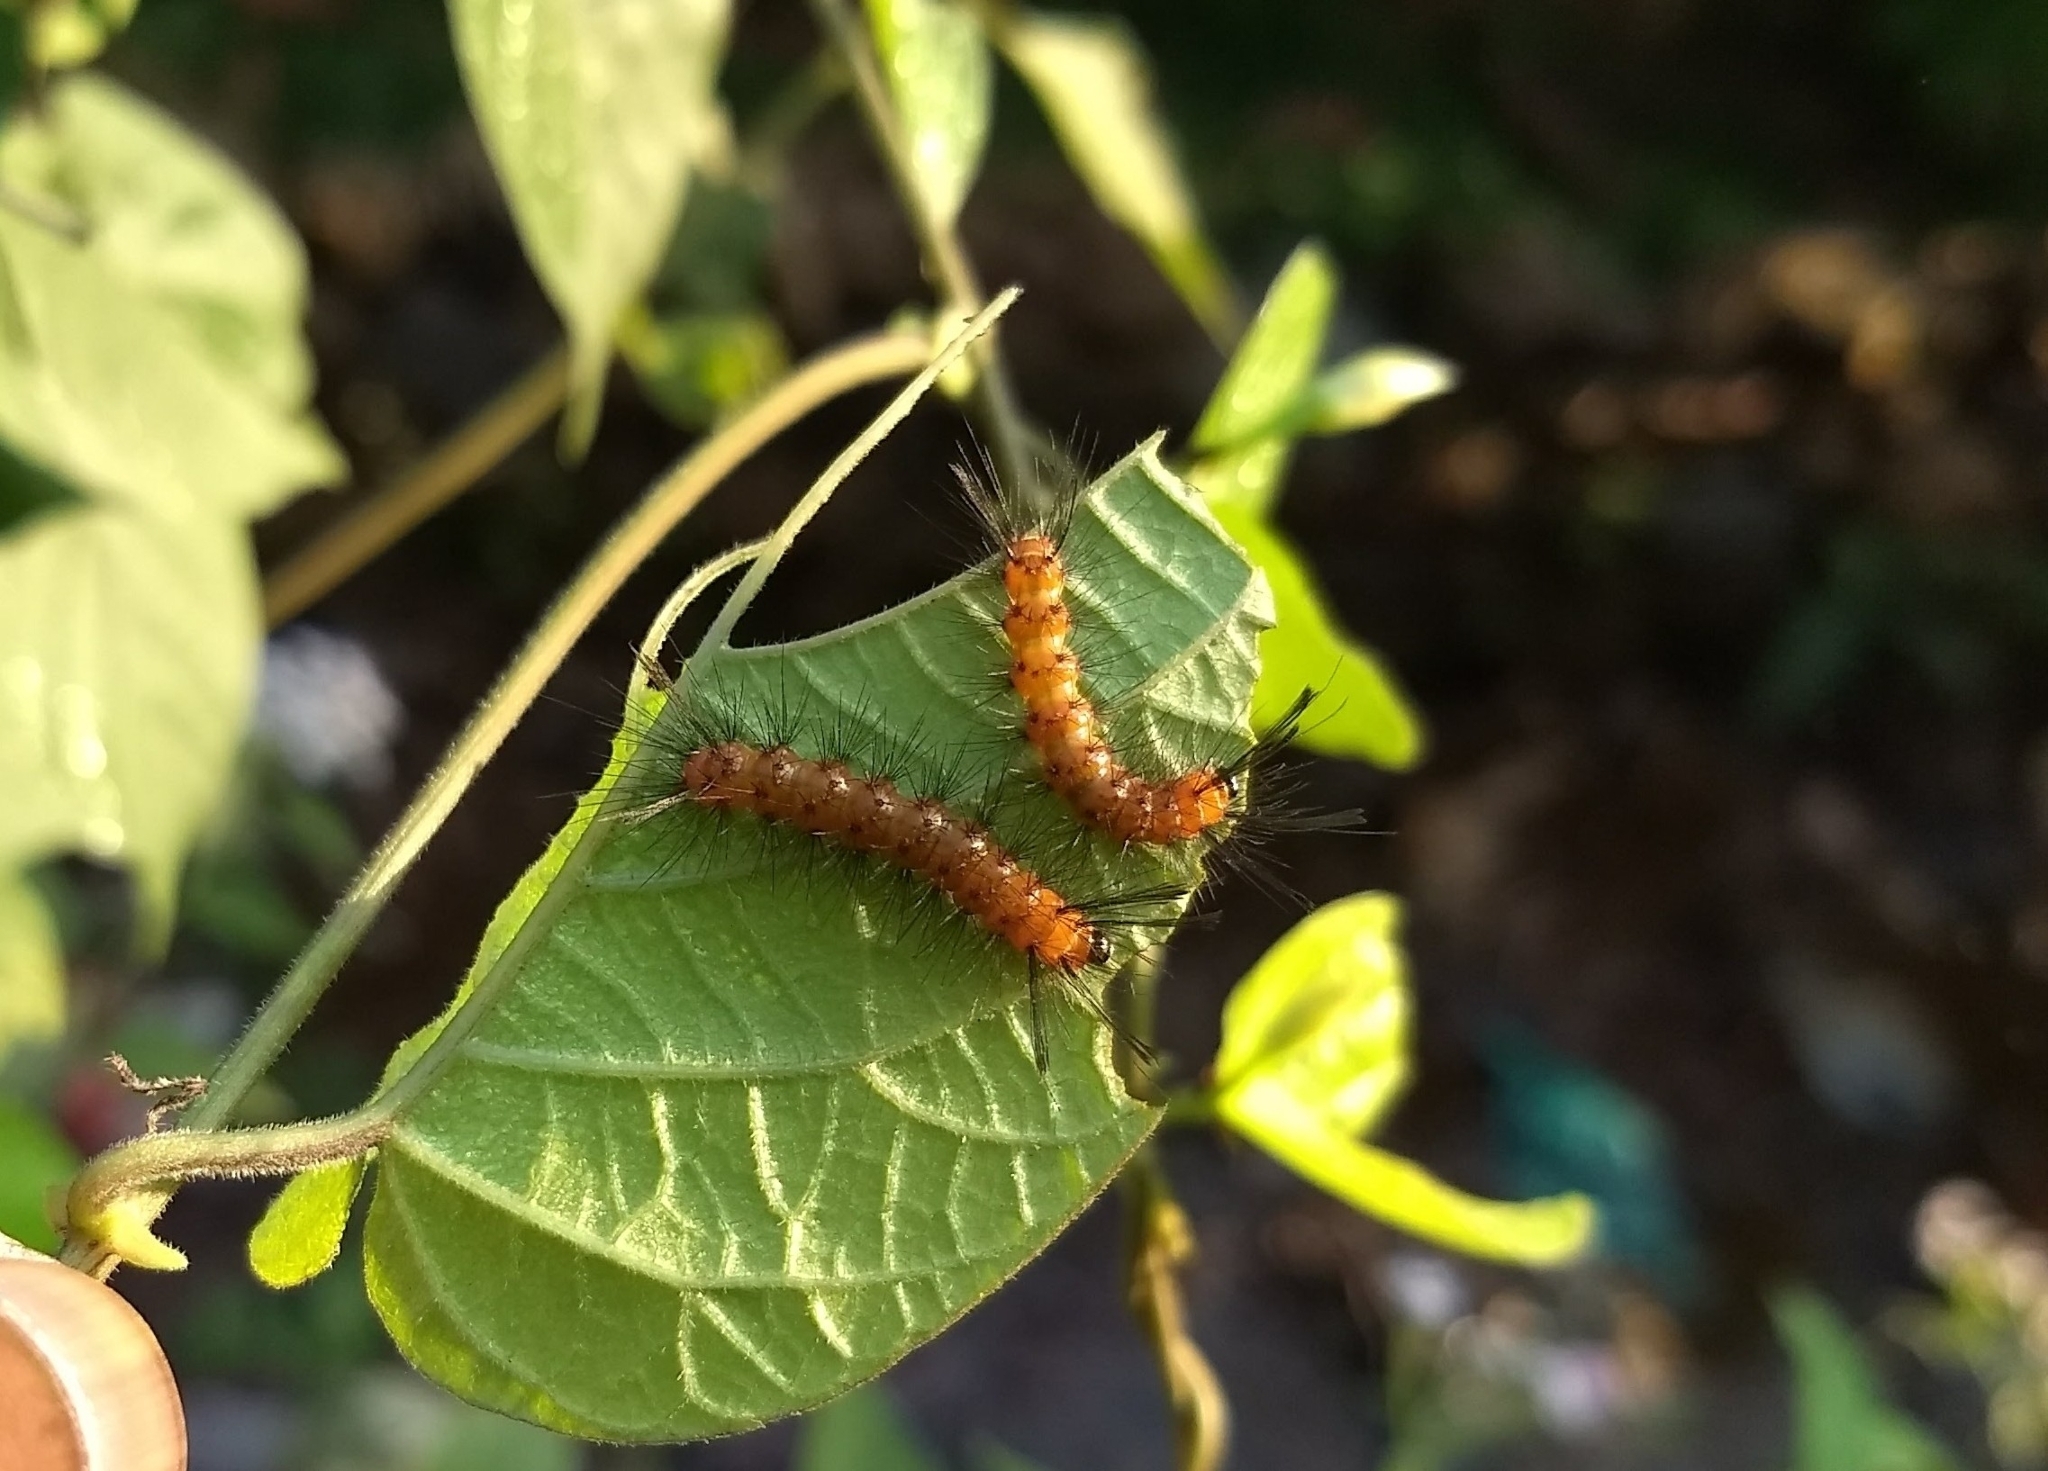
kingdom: Animalia
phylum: Arthropoda
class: Insecta
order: Lepidoptera
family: Nymphalidae
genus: Acraea
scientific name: Acraea terpsicore
